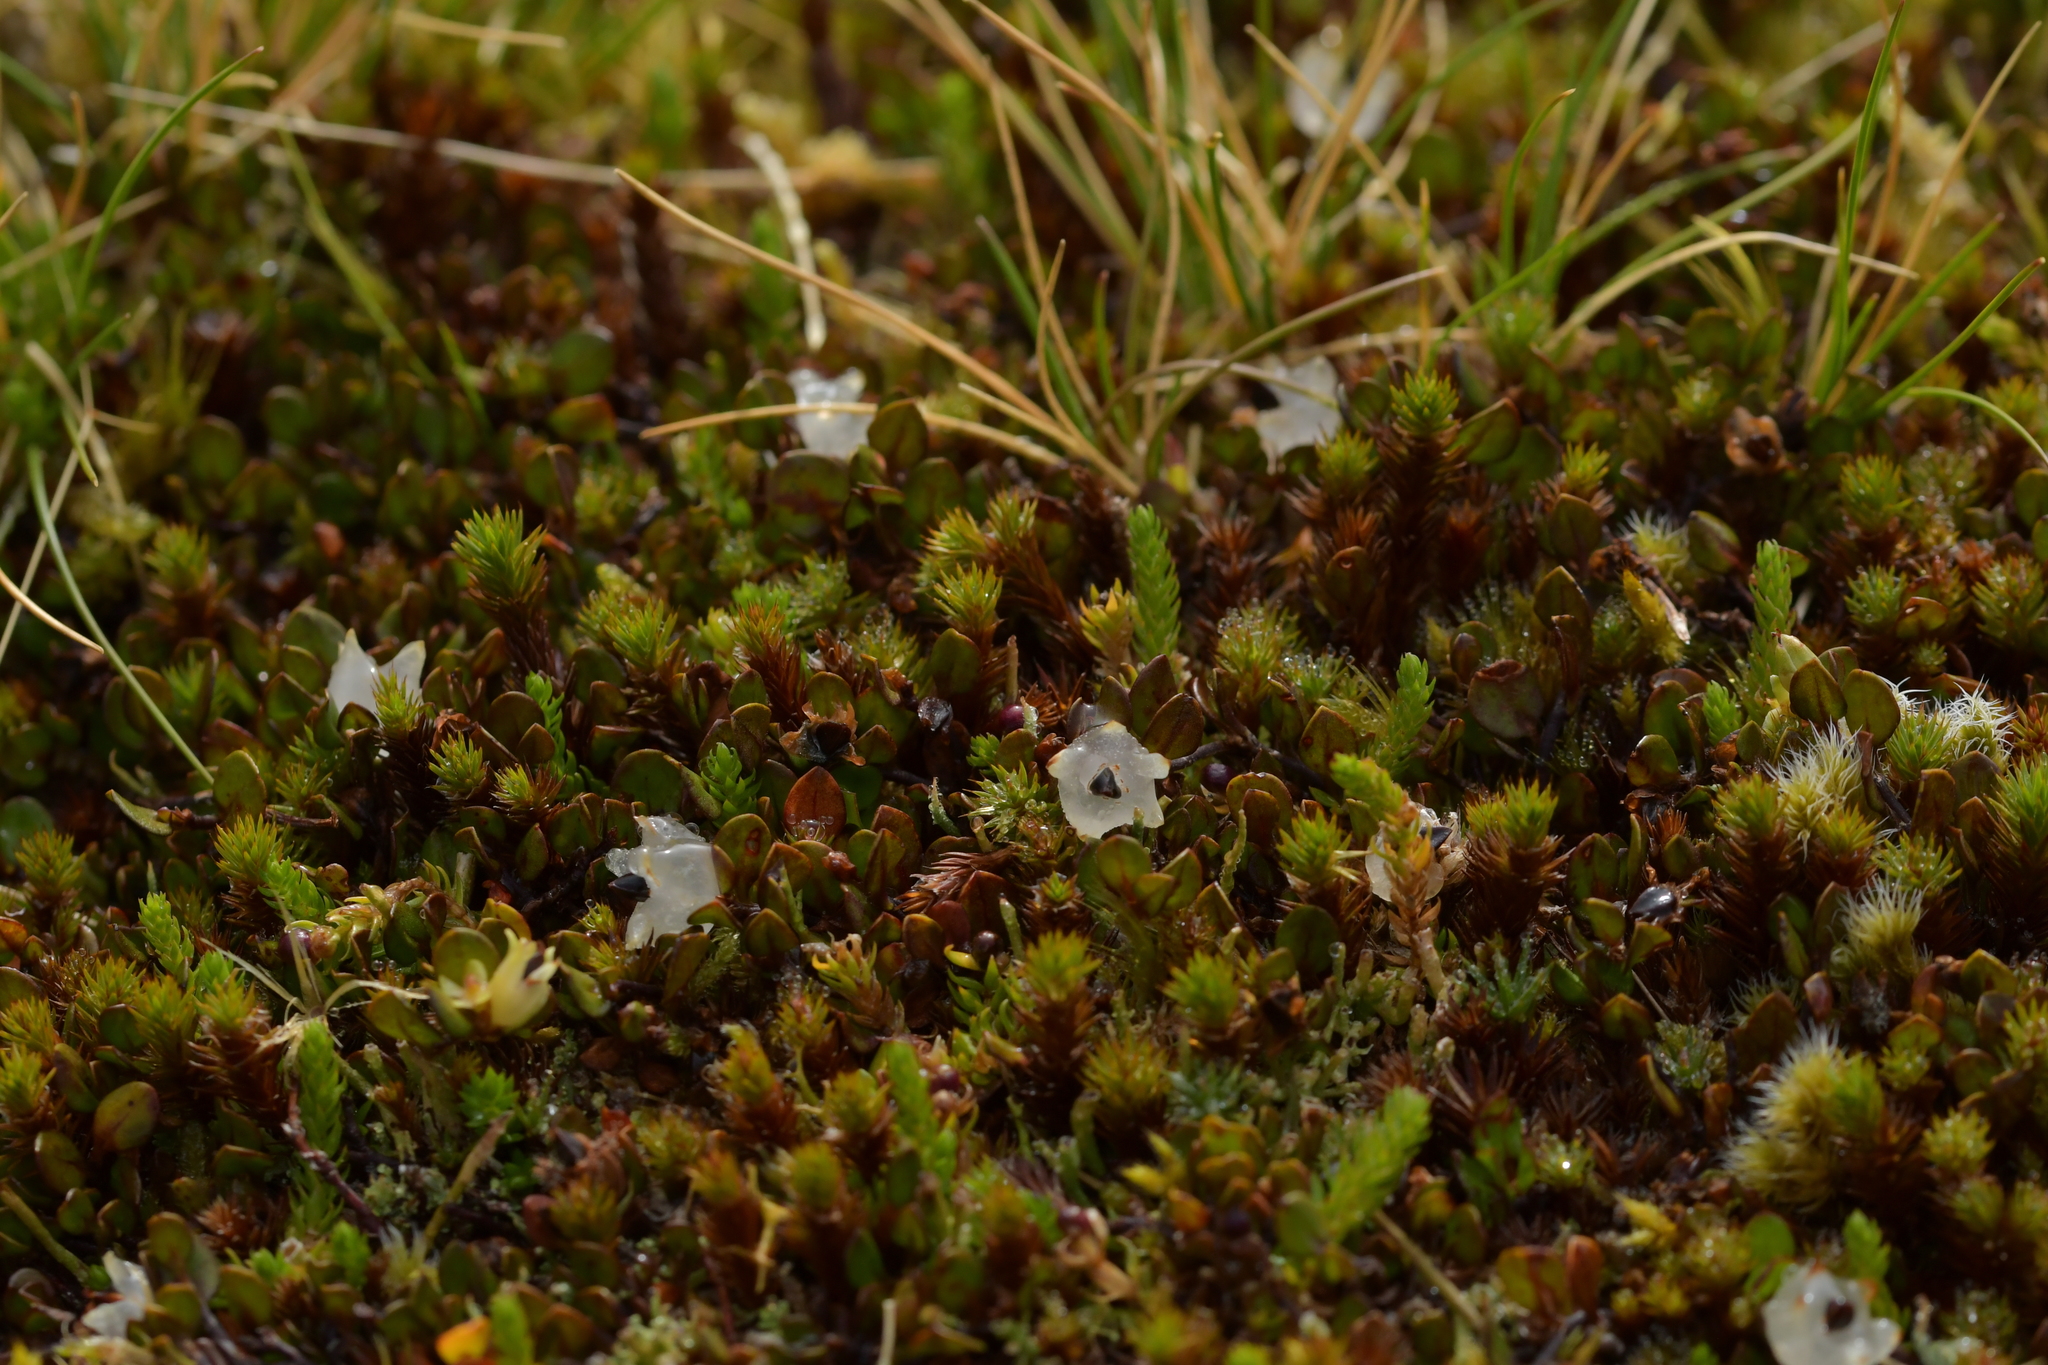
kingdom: Plantae
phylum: Tracheophyta
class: Magnoliopsida
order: Caryophyllales
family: Polygonaceae
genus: Muehlenbeckia
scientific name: Muehlenbeckia axillaris
